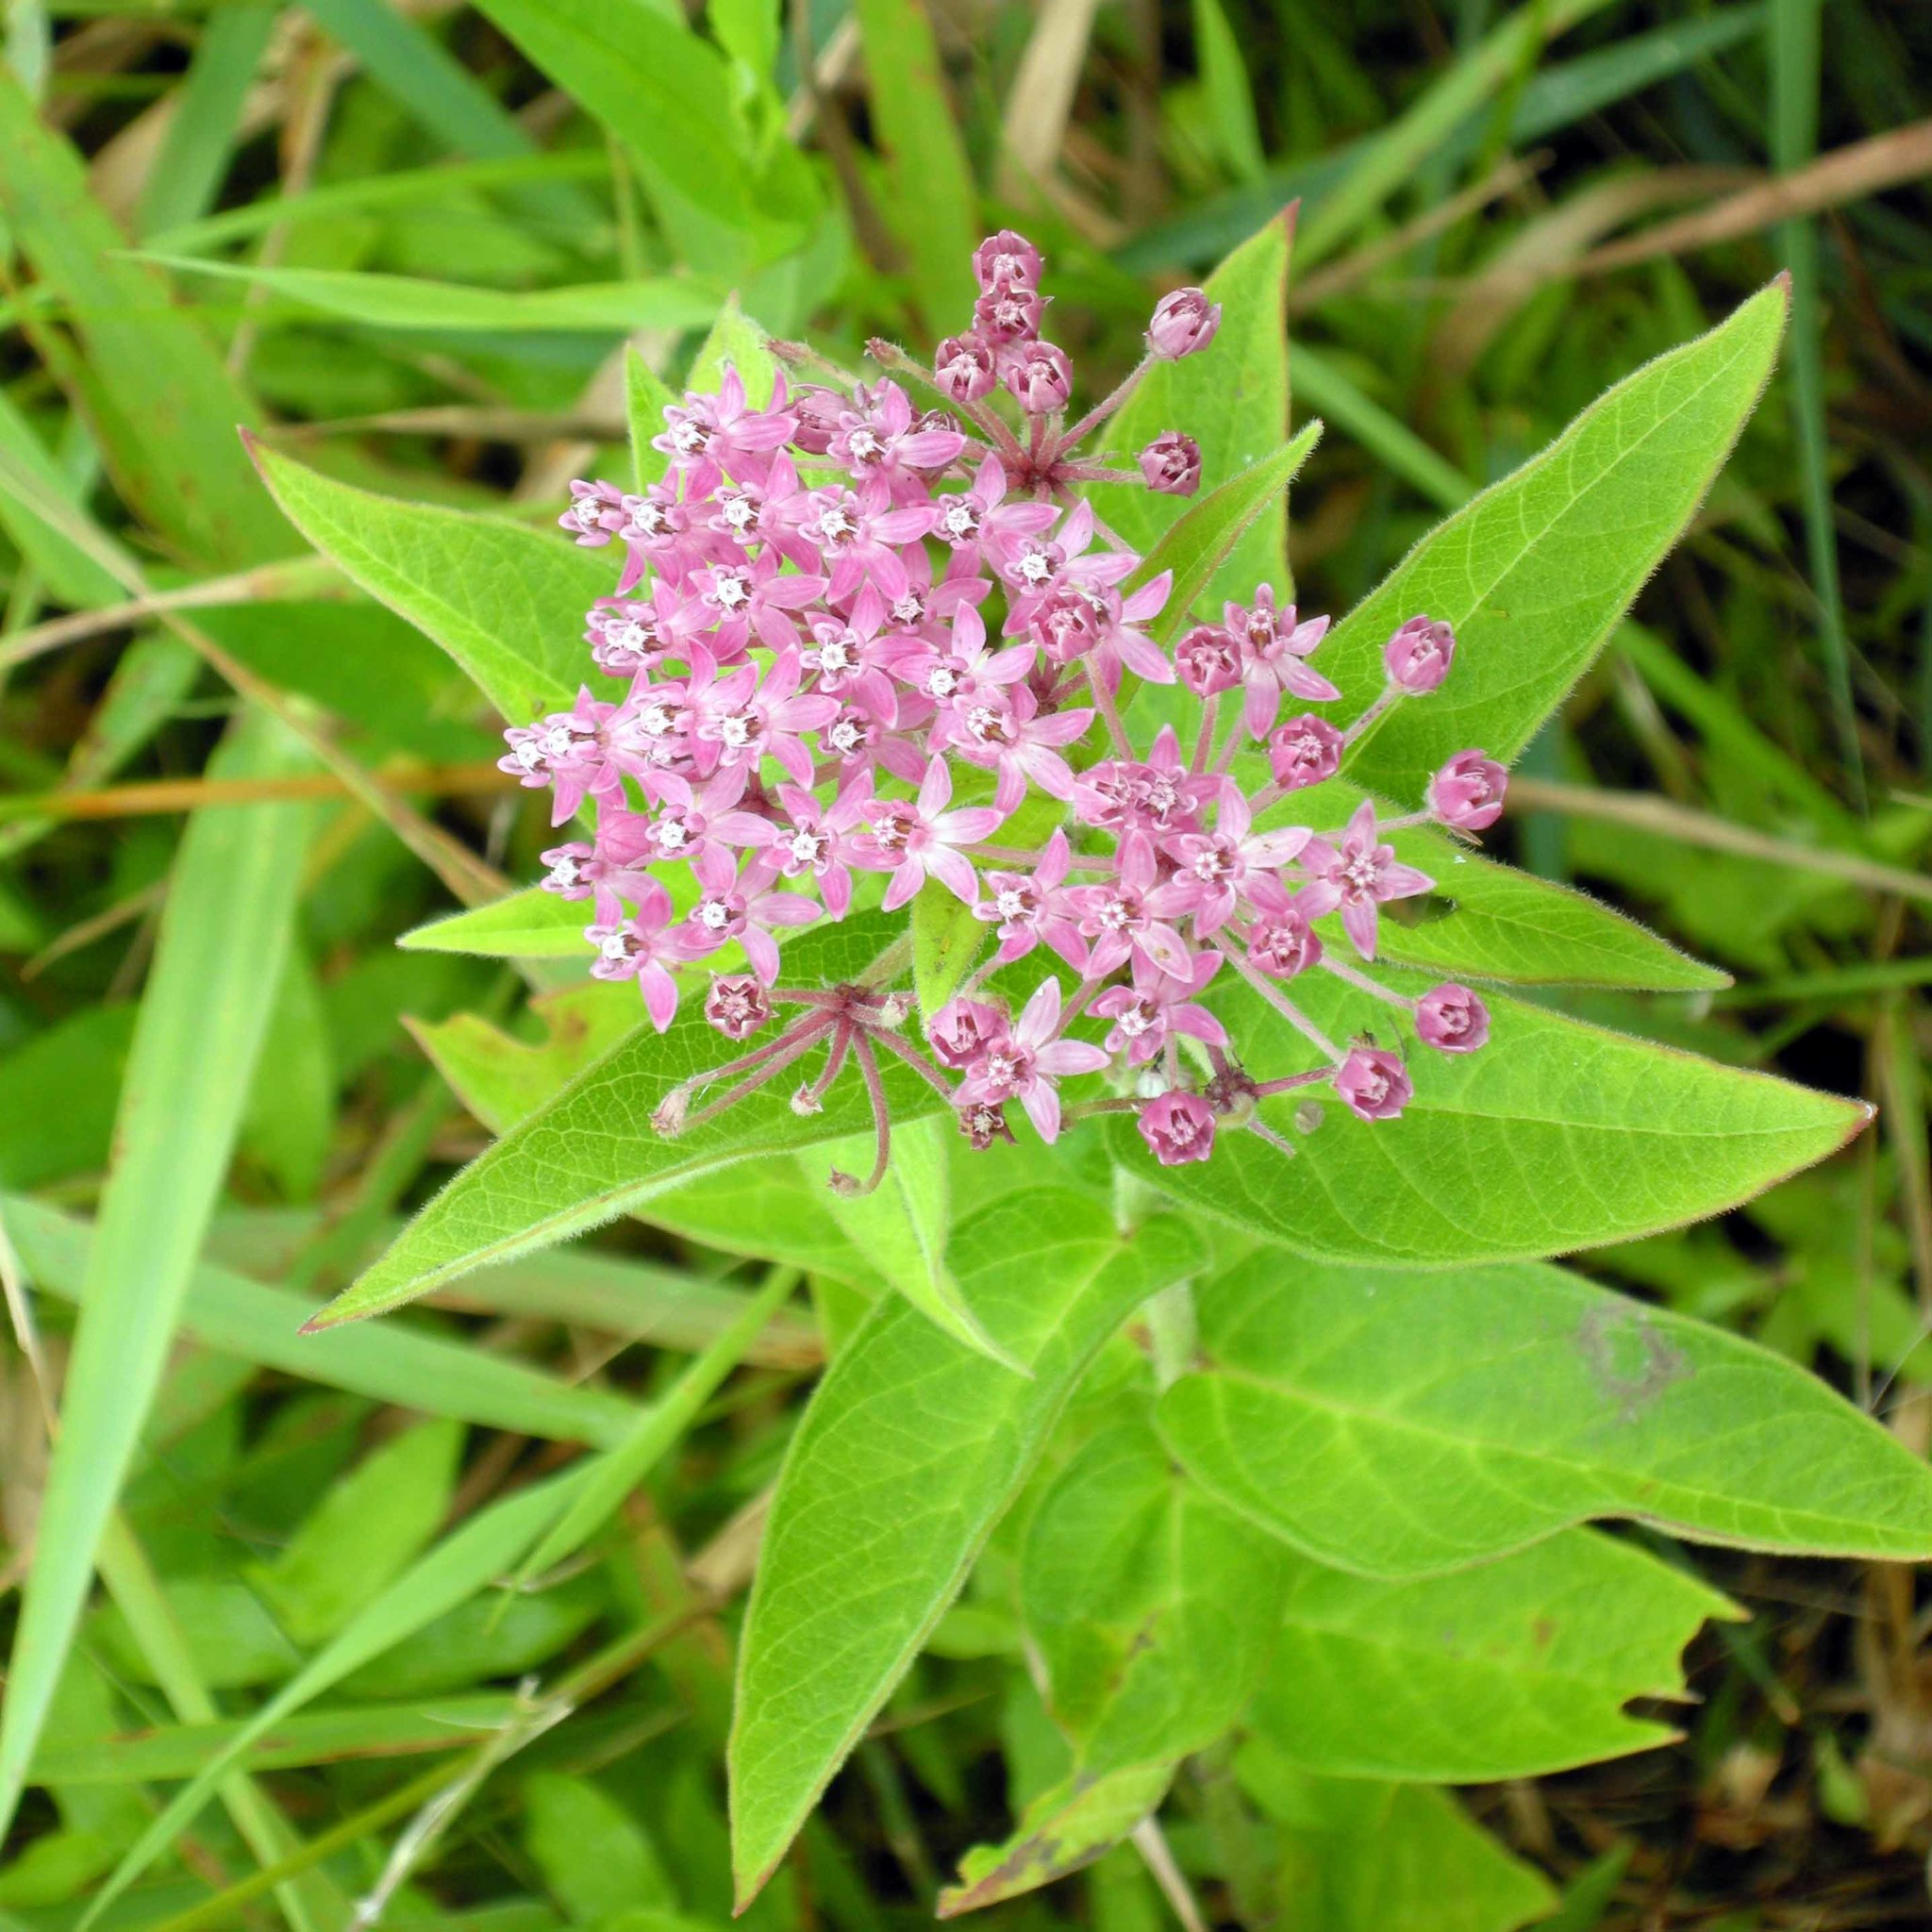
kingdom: Plantae
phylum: Tracheophyta
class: Magnoliopsida
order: Gentianales
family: Apocynaceae
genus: Asclepias
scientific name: Asclepias incarnata
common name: Swamp milkweed
